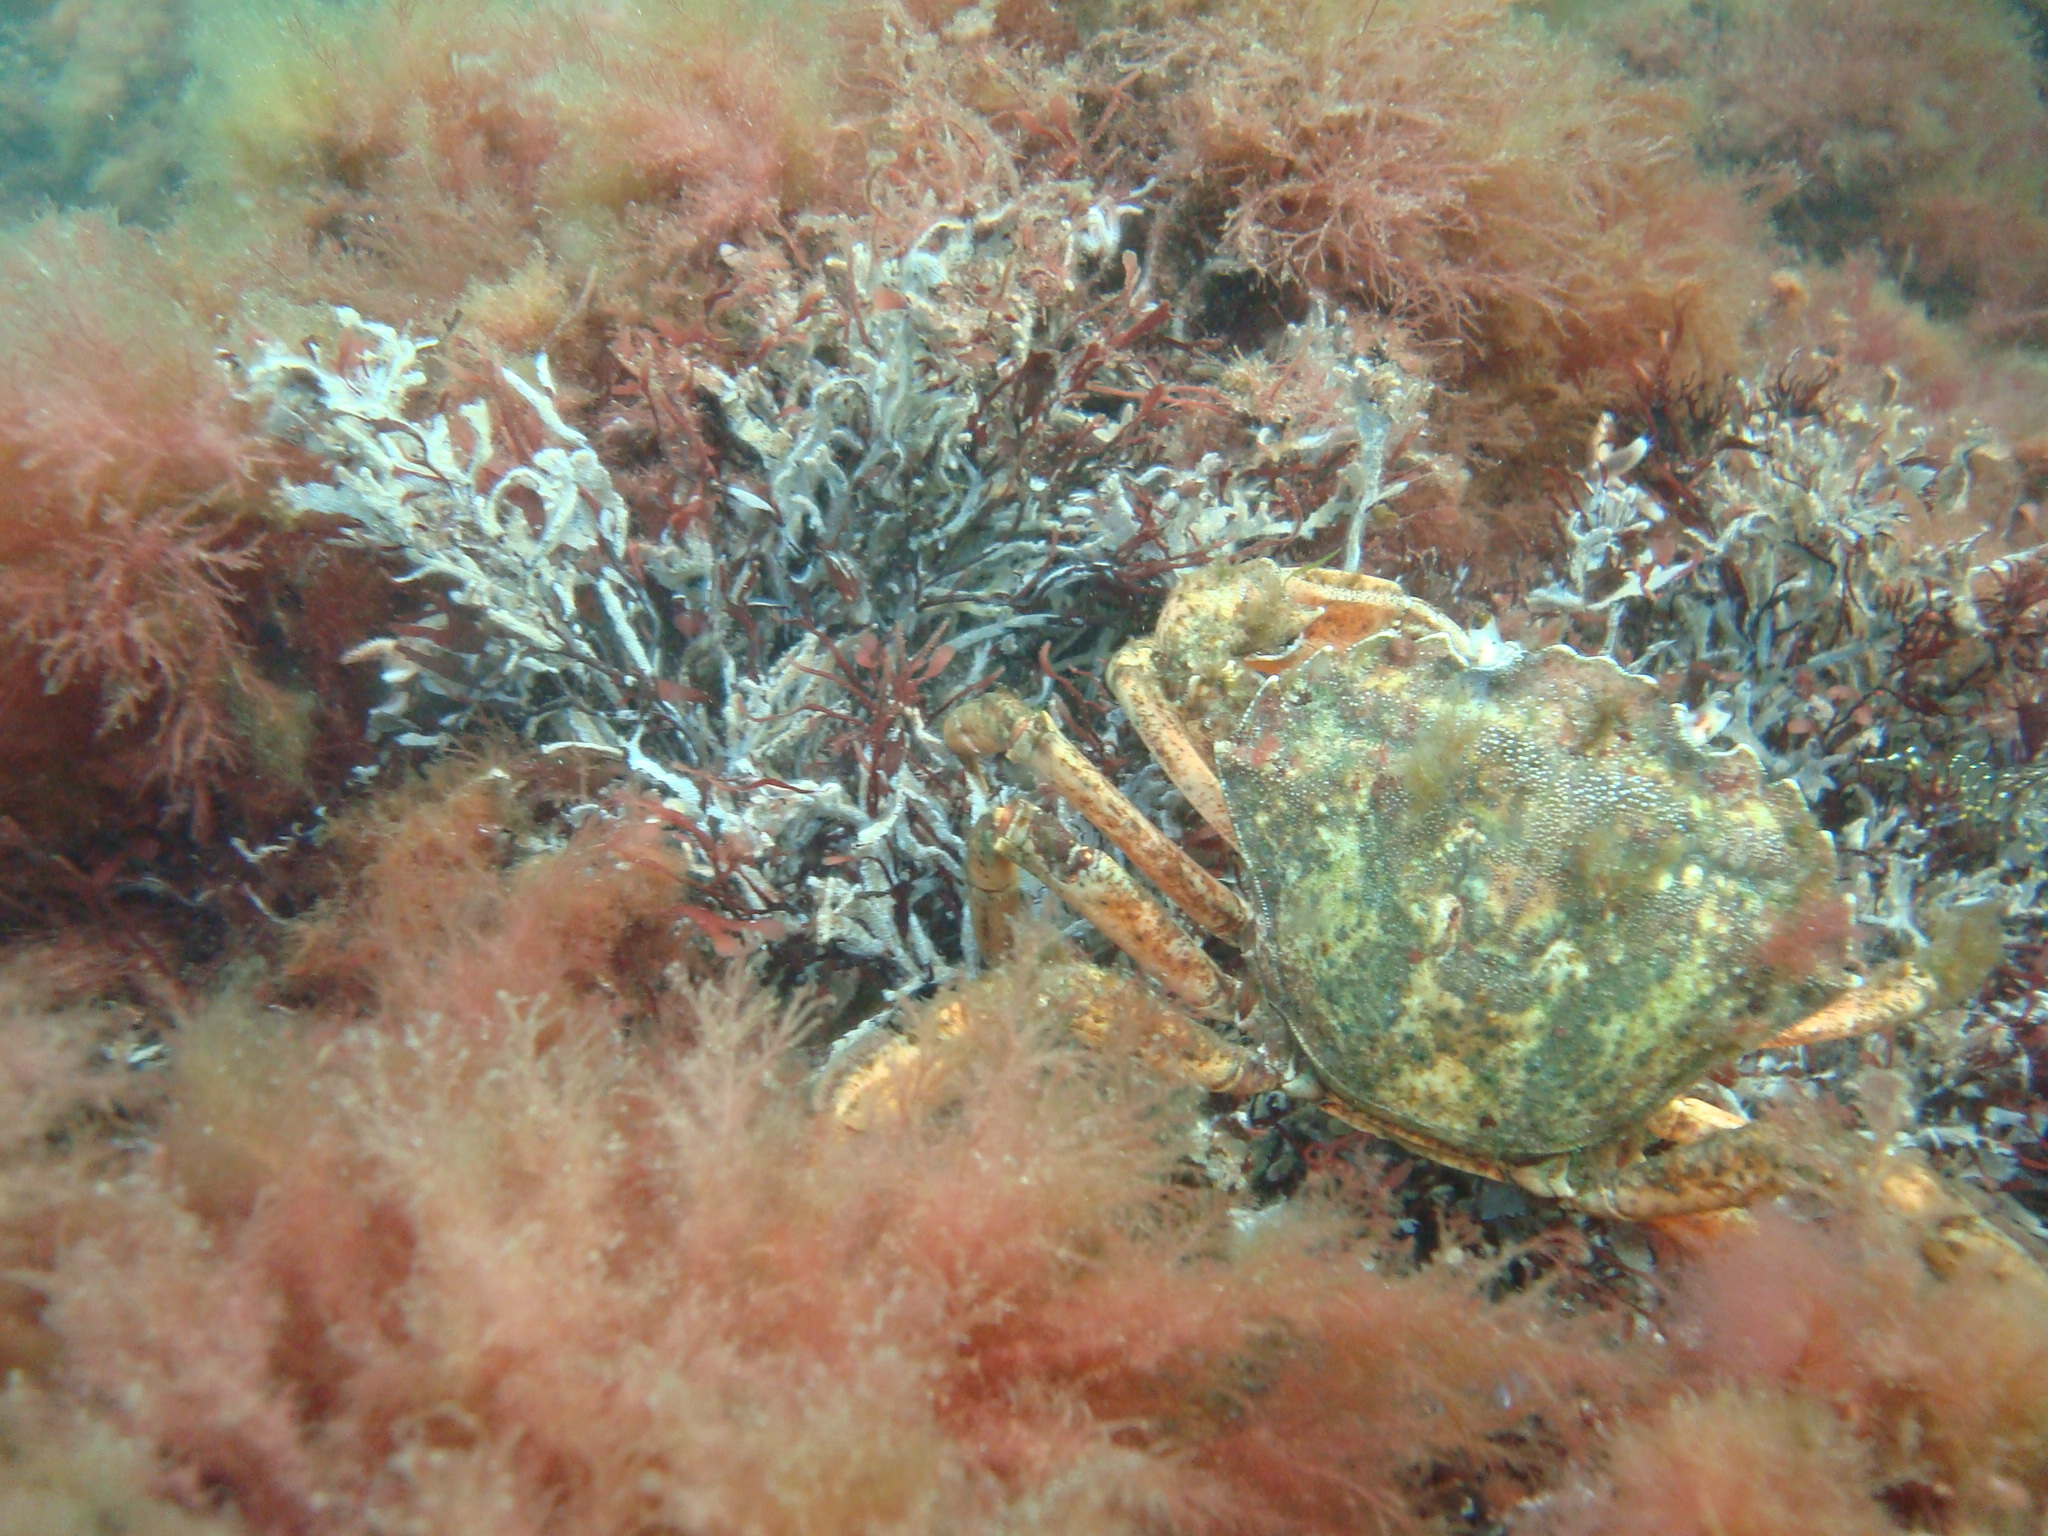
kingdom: Animalia
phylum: Arthropoda
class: Malacostraca
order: Decapoda
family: Carcinidae
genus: Carcinus
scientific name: Carcinus maenas
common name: European green crab
